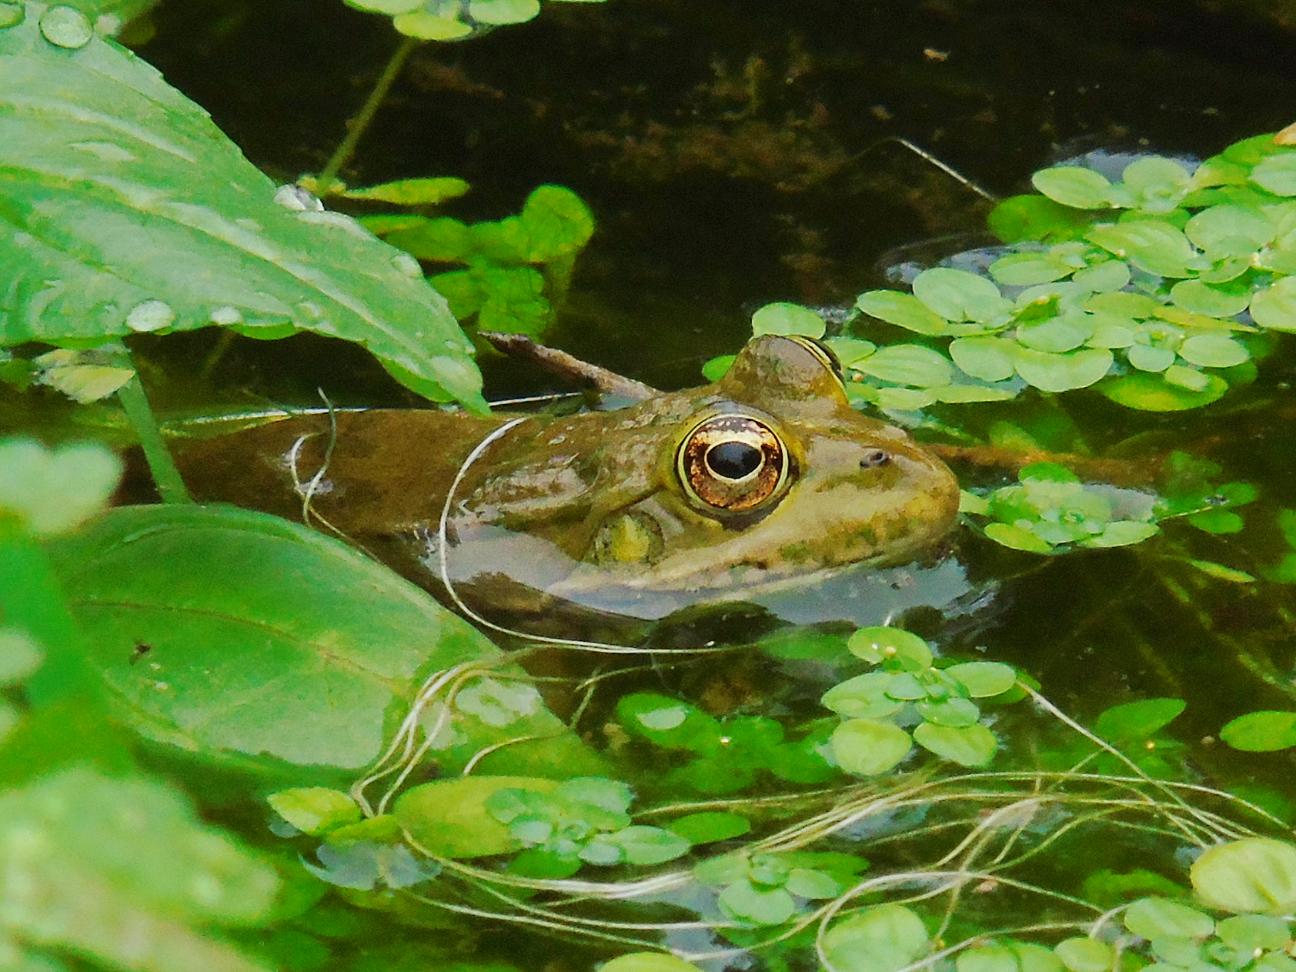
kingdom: Animalia
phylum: Chordata
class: Amphibia
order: Anura
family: Ranidae
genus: Pelophylax
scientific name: Pelophylax ridibundus
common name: Marsh frog
